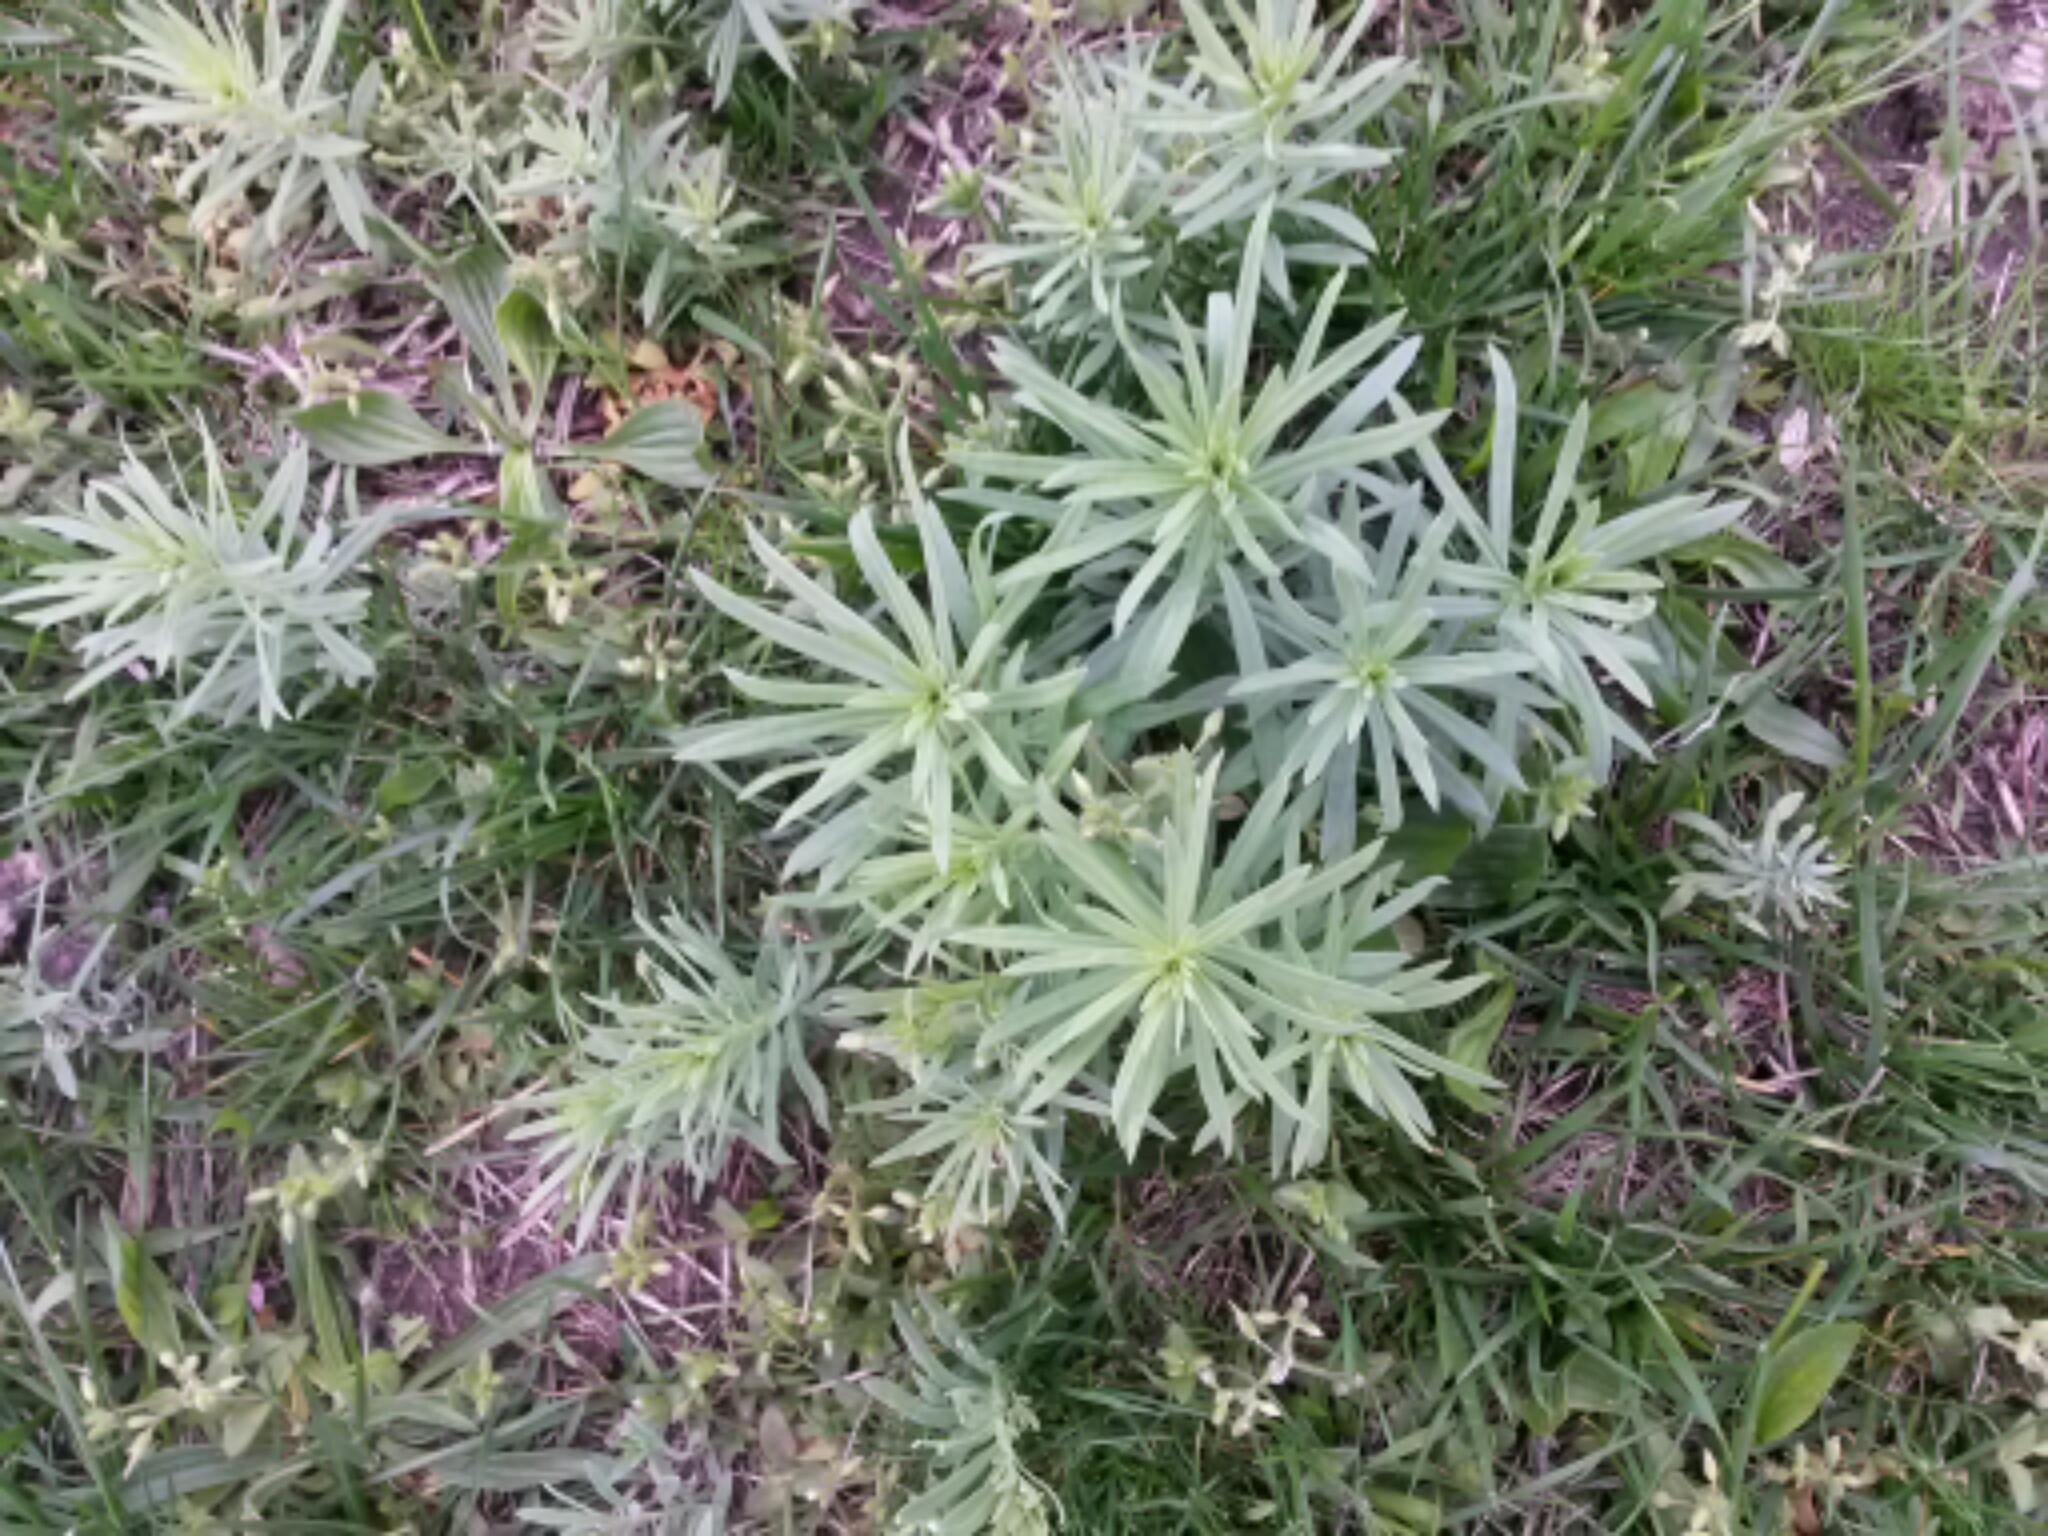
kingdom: Plantae
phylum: Tracheophyta
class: Magnoliopsida
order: Lamiales
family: Plantaginaceae
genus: Linaria
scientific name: Linaria vulgaris
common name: Butter and eggs
